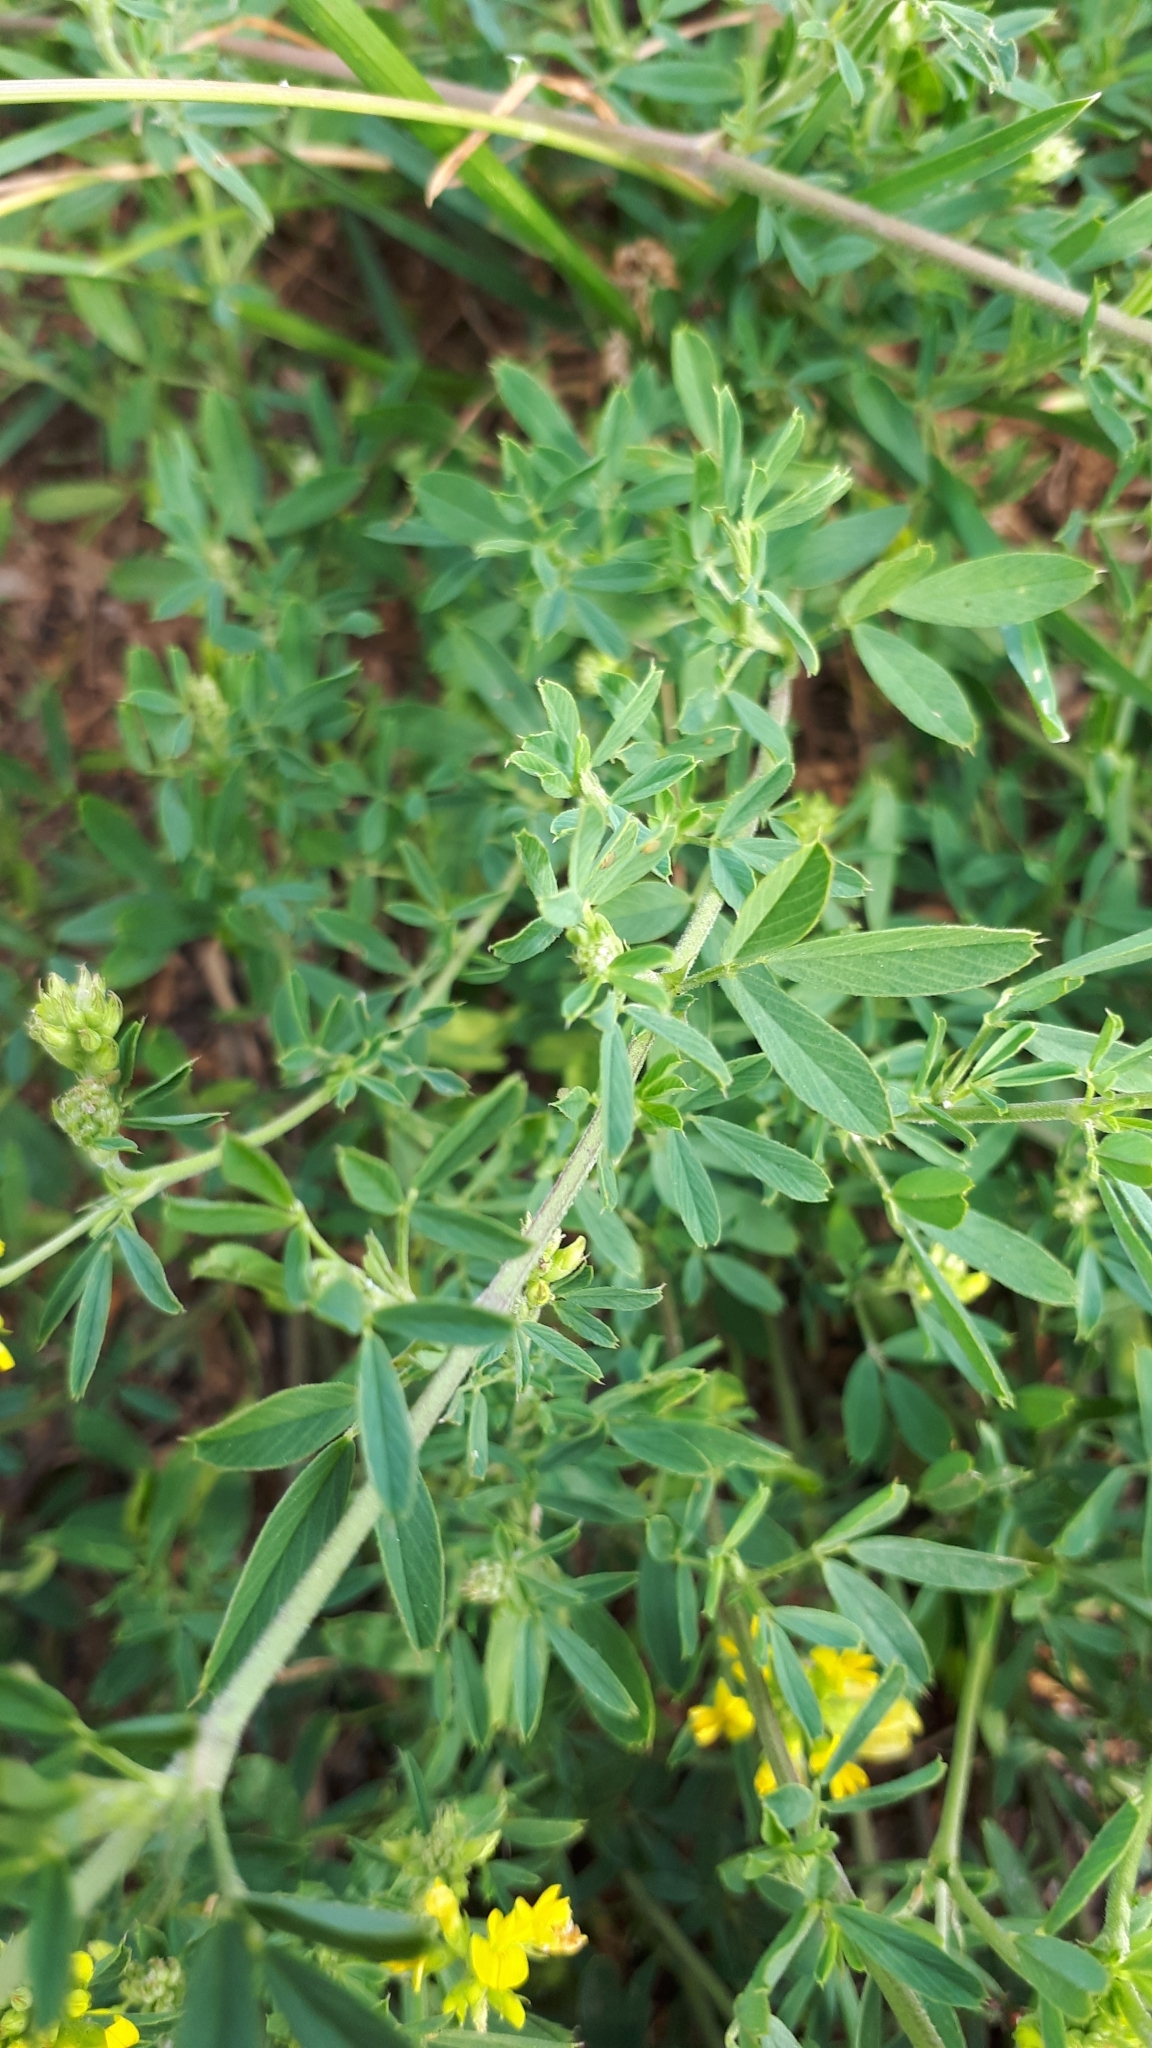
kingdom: Plantae
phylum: Tracheophyta
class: Magnoliopsida
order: Fabales
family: Fabaceae
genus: Medicago
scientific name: Medicago falcata
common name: Sickle medick
